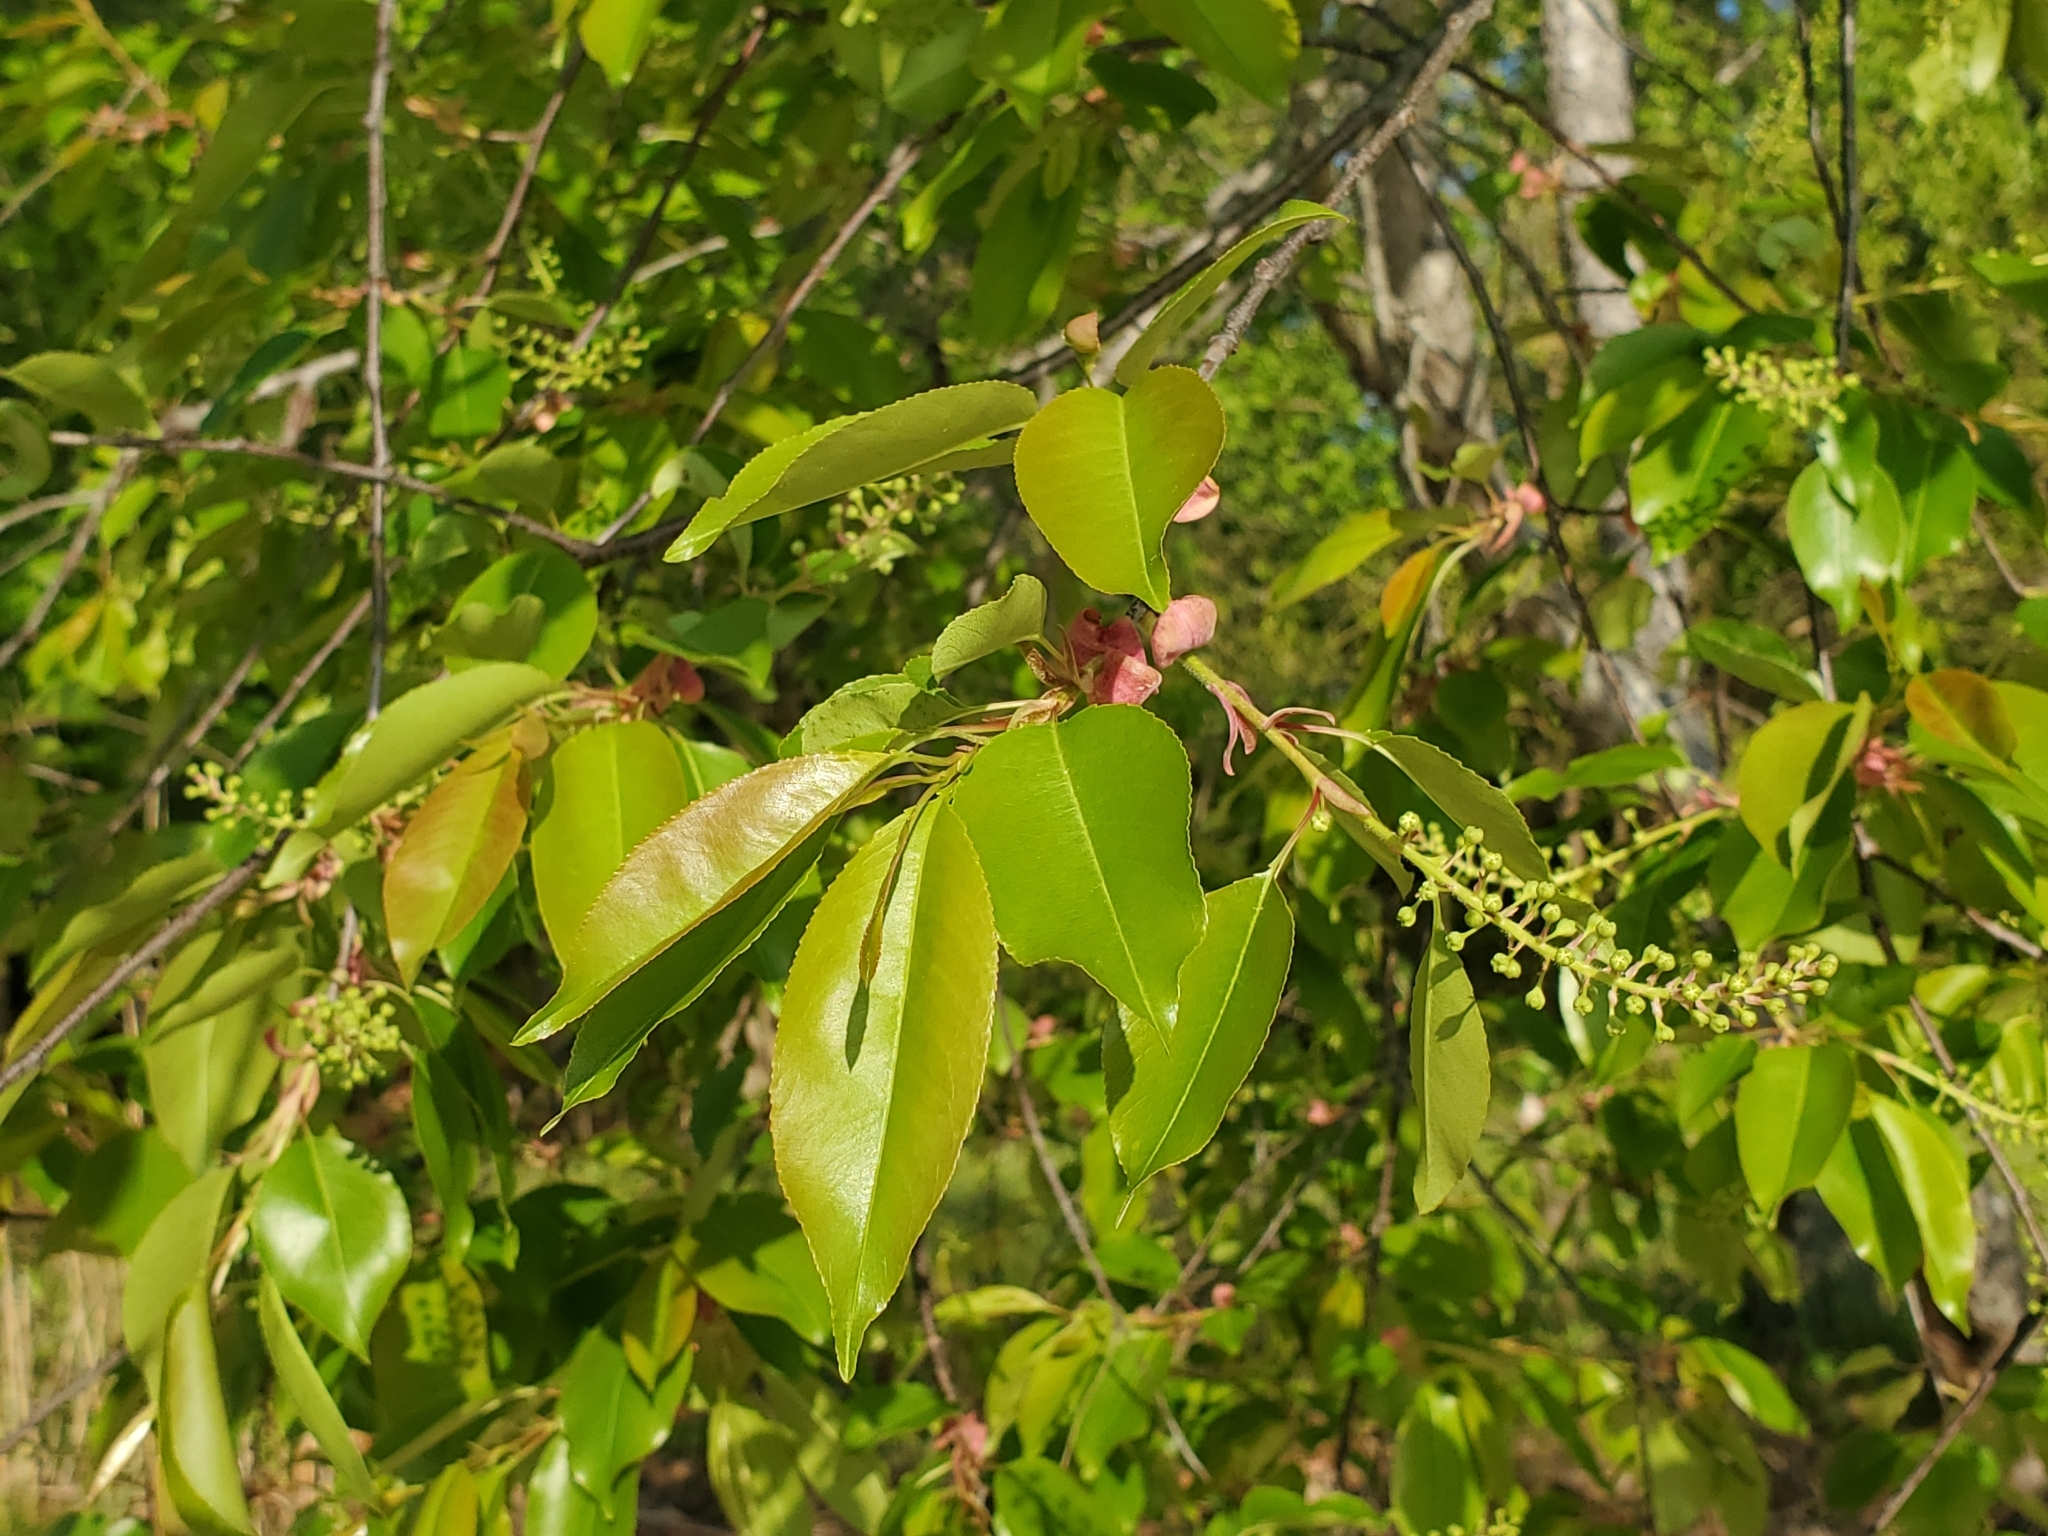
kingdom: Plantae
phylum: Tracheophyta
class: Magnoliopsida
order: Rosales
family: Rosaceae
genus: Prunus
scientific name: Prunus serotina
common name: Black cherry
